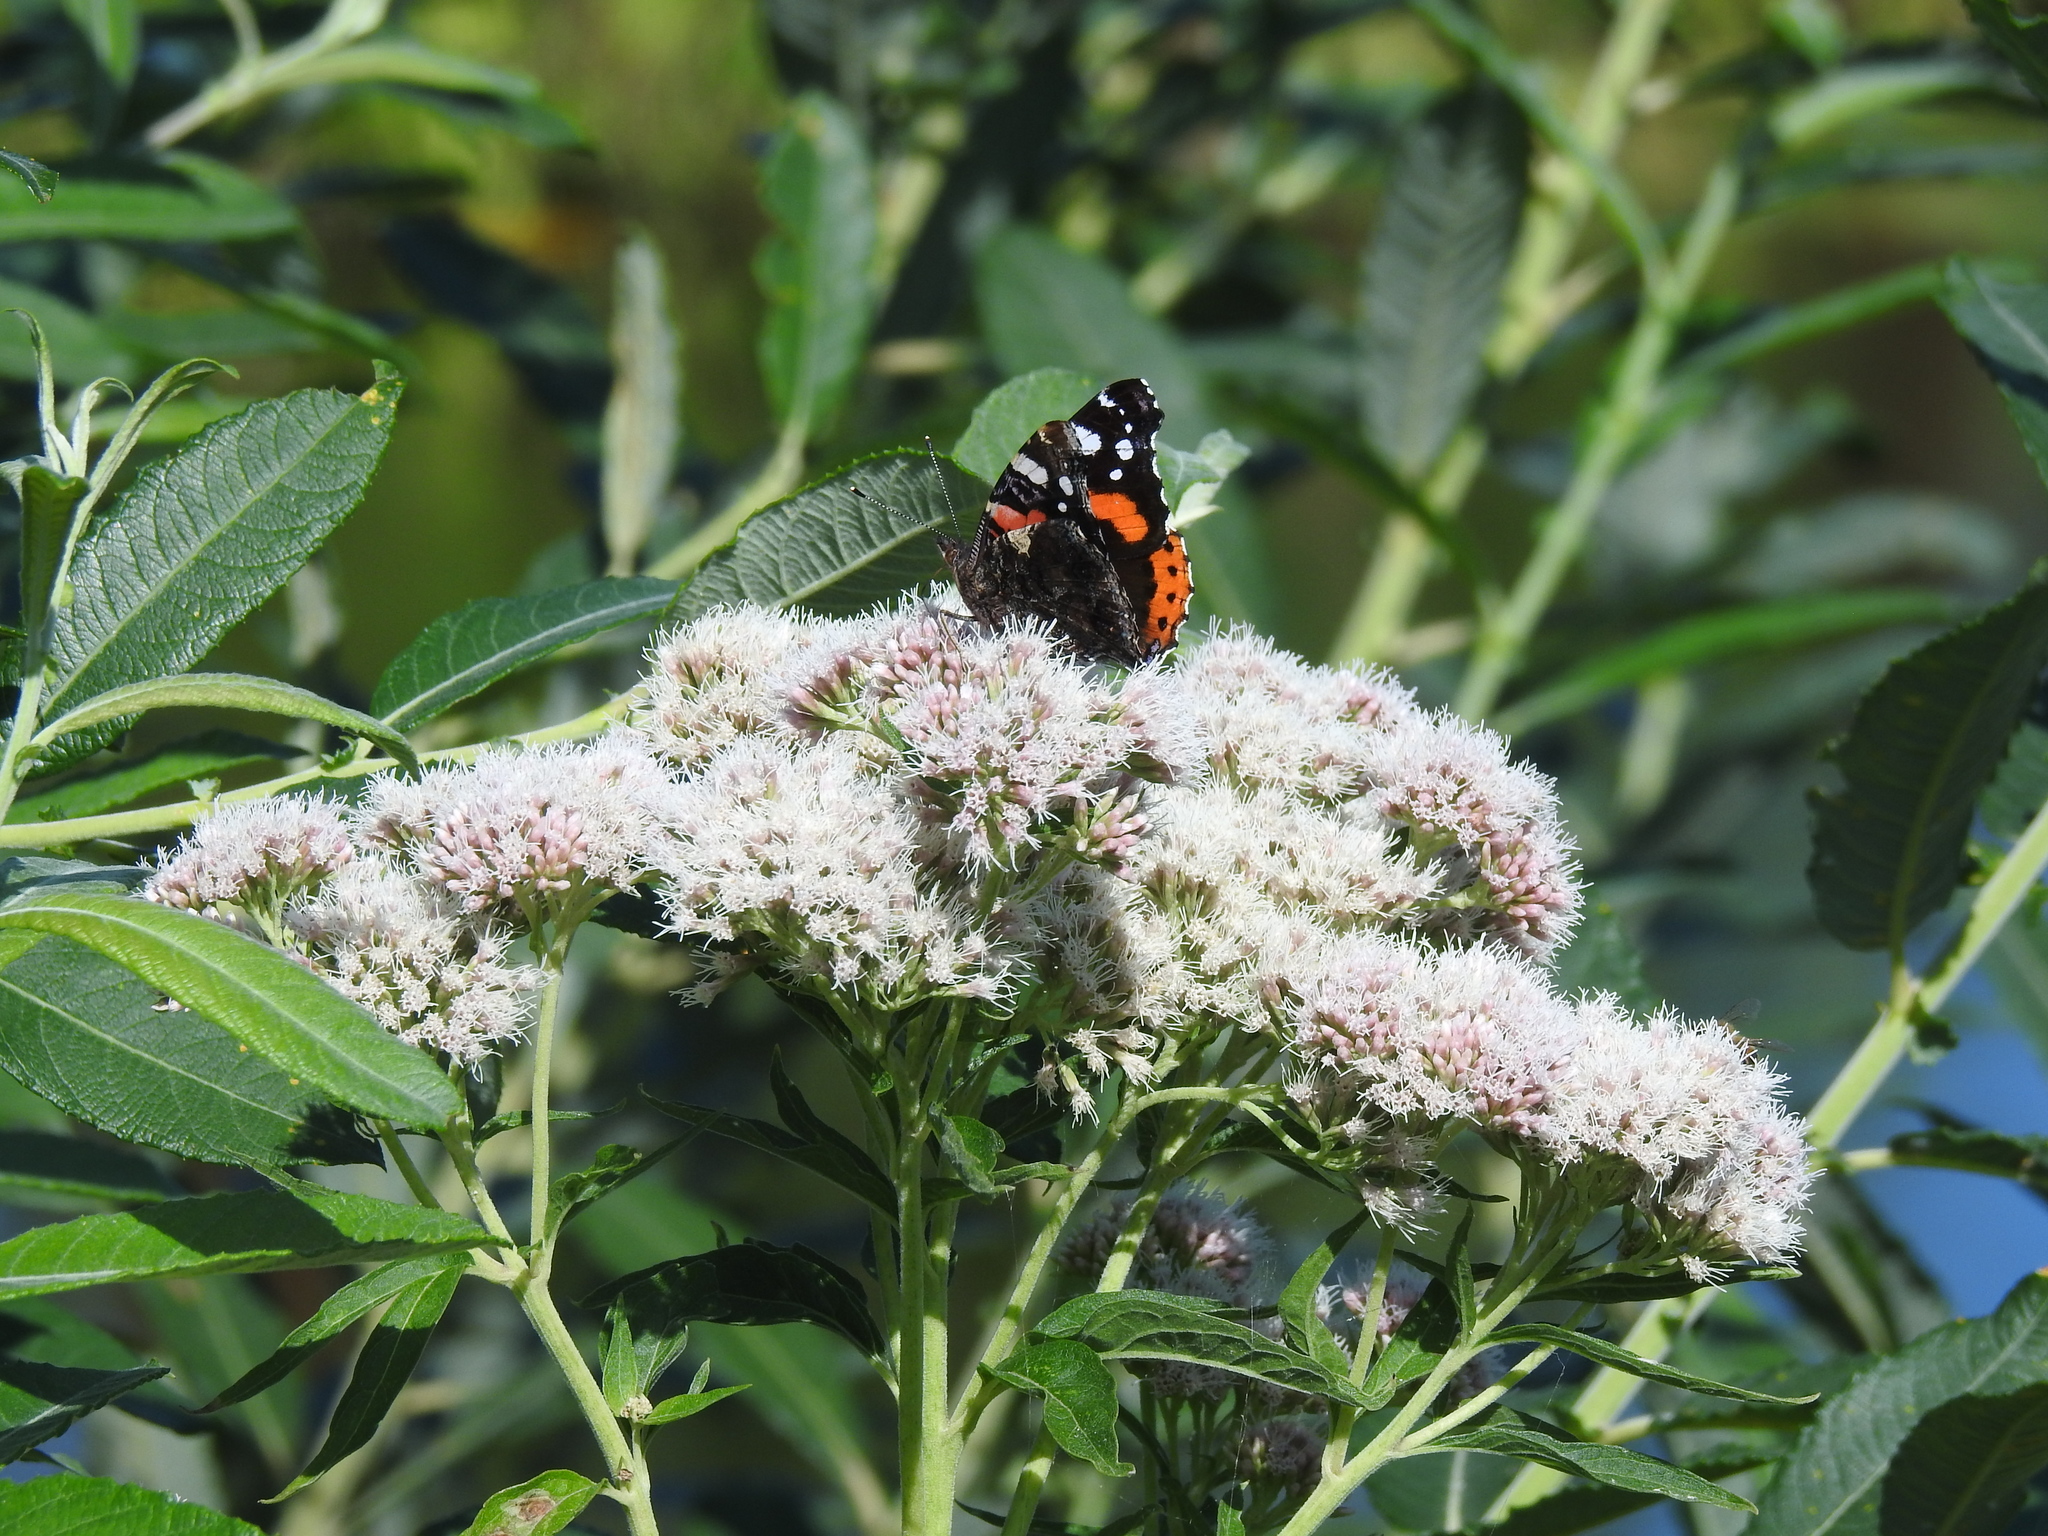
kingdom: Animalia
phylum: Arthropoda
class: Insecta
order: Lepidoptera
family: Nymphalidae
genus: Vanessa
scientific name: Vanessa atalanta
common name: Red admiral
